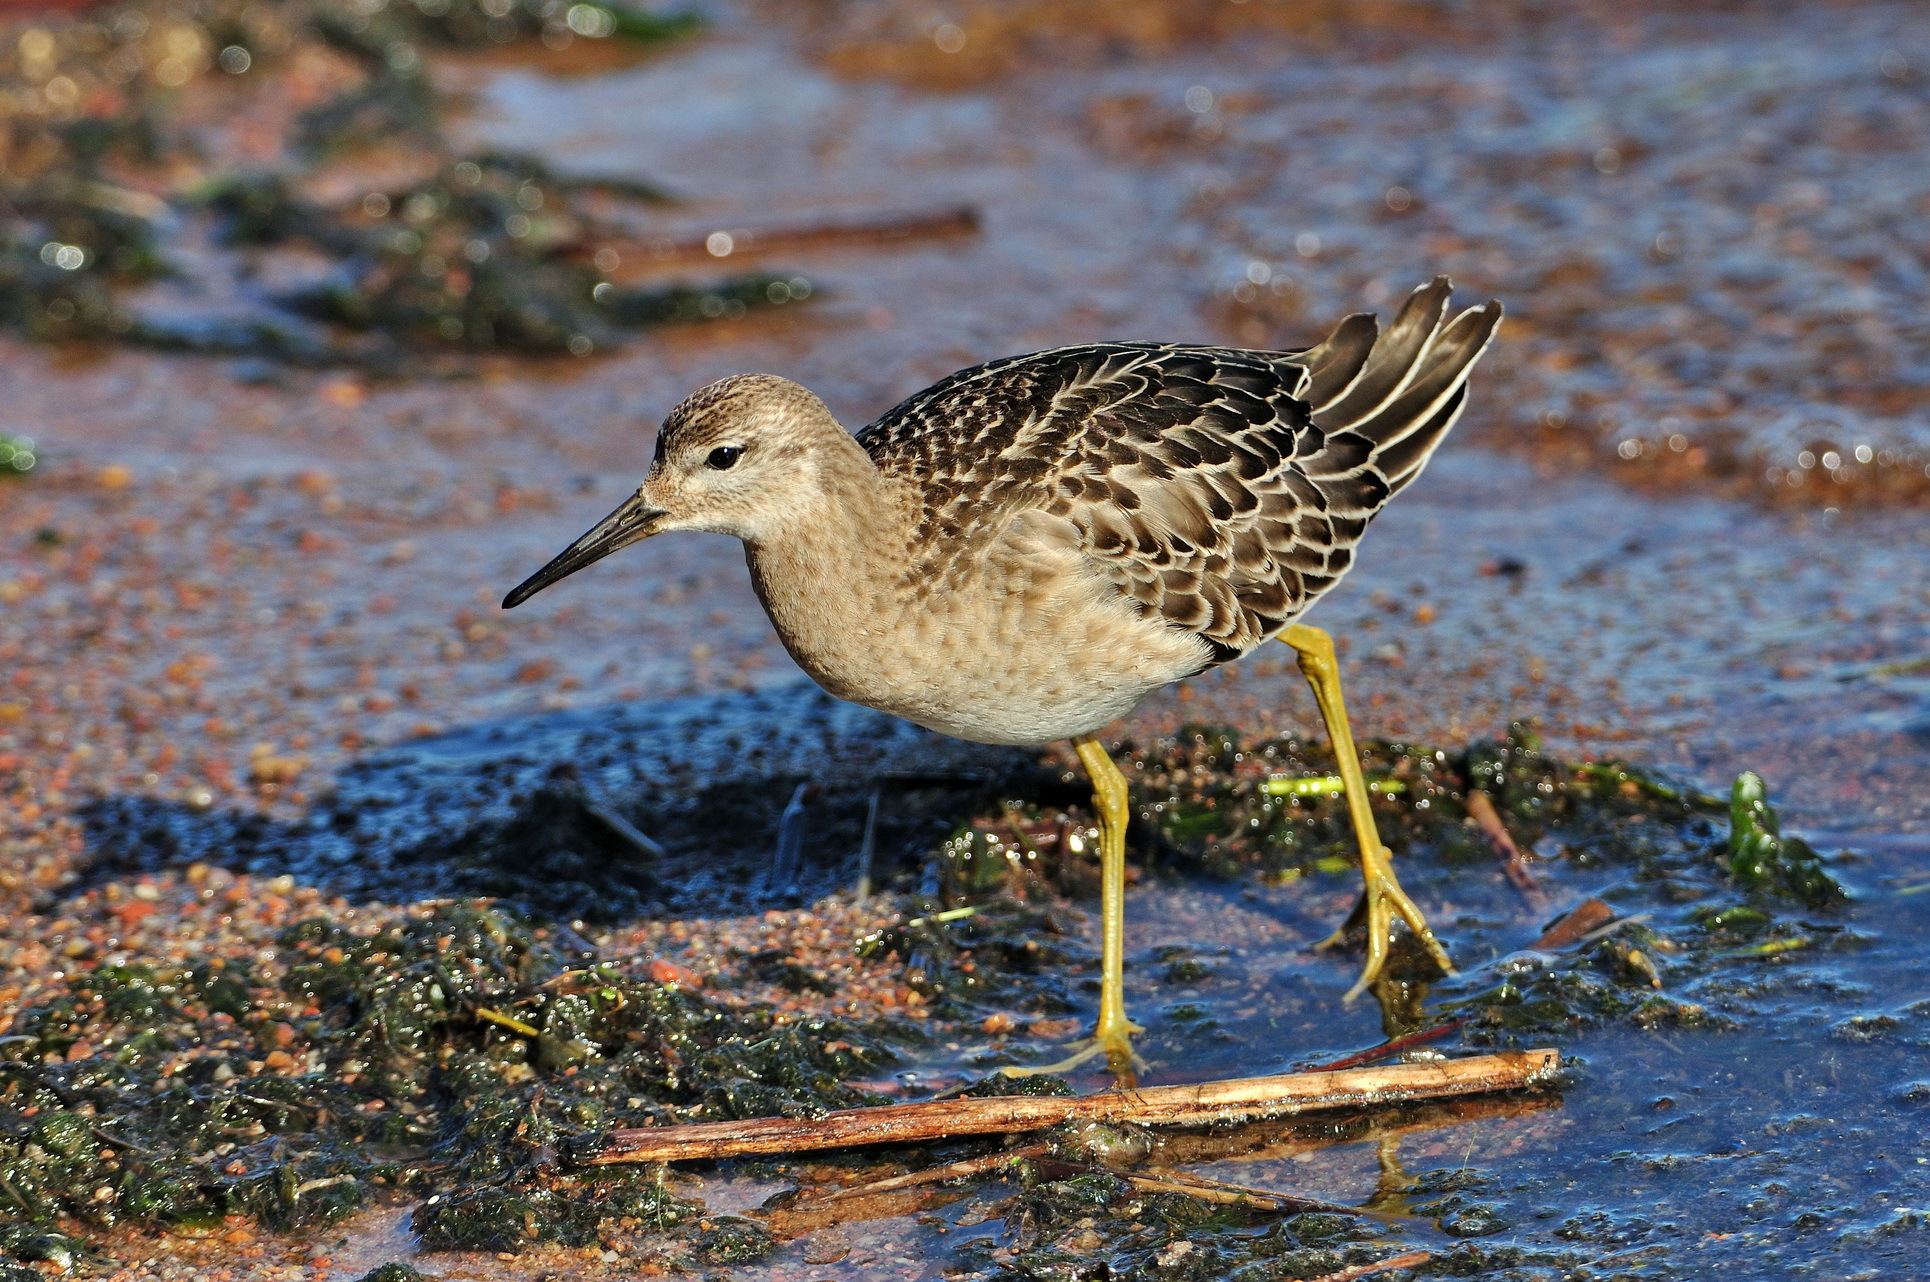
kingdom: Animalia
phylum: Chordata
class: Aves
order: Charadriiformes
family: Scolopacidae
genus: Calidris
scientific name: Calidris pugnax
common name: Ruff
